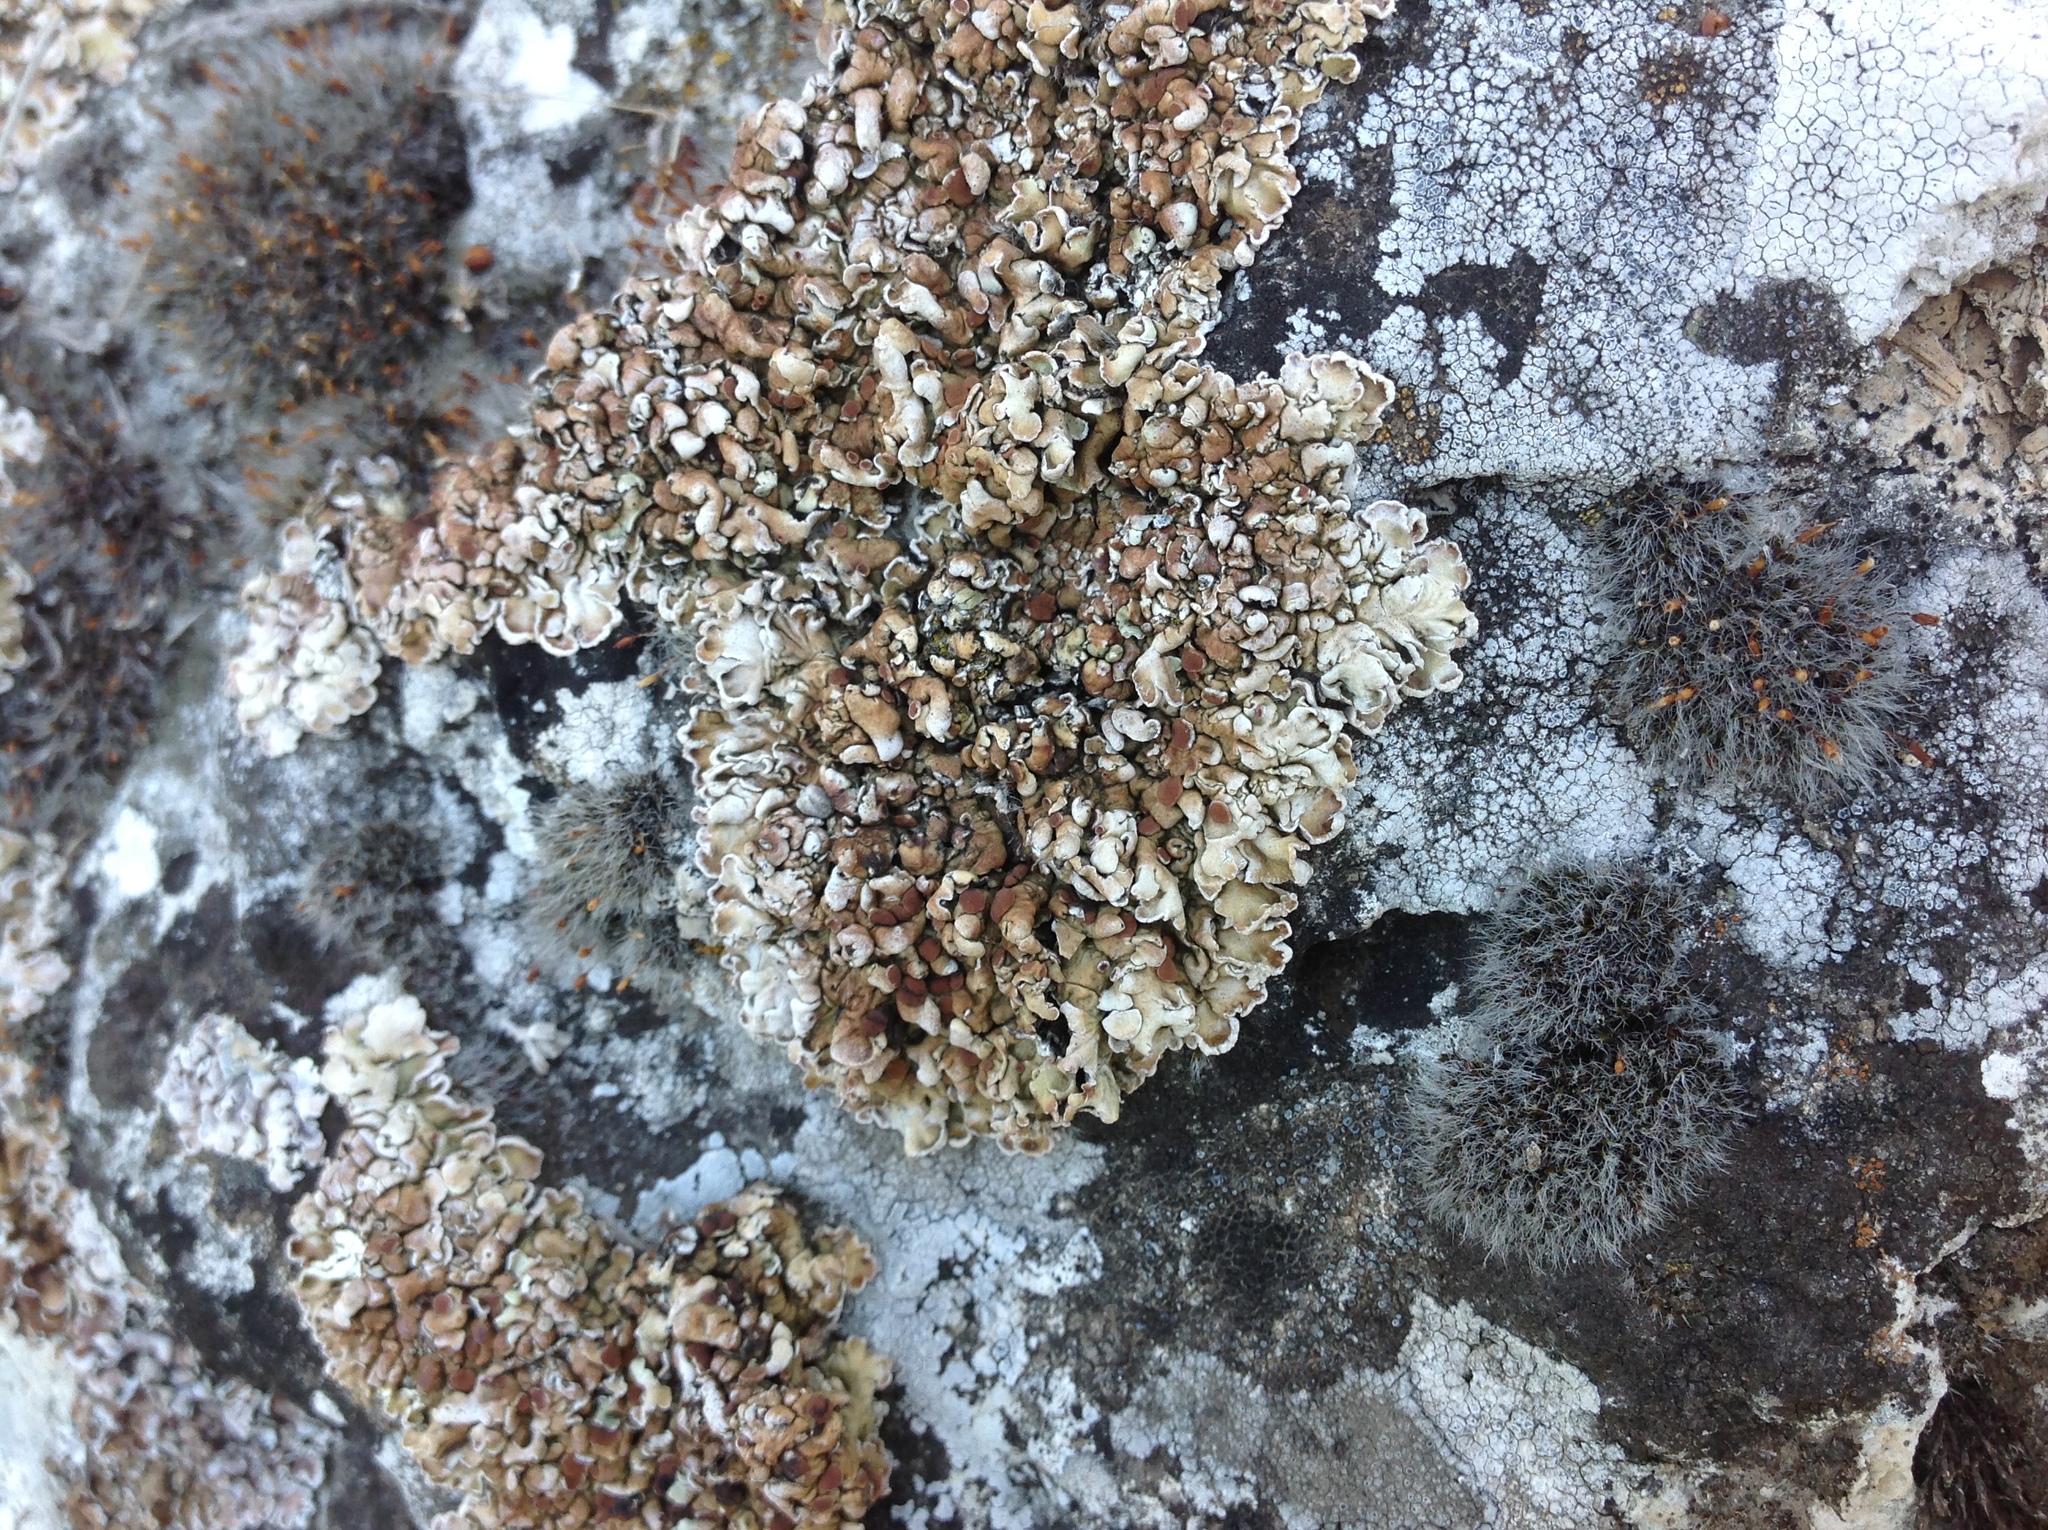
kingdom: Fungi
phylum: Ascomycota
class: Lecanoromycetes
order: Lecanorales
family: Stereocaulaceae
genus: Squamarina
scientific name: Squamarina cartilaginea
